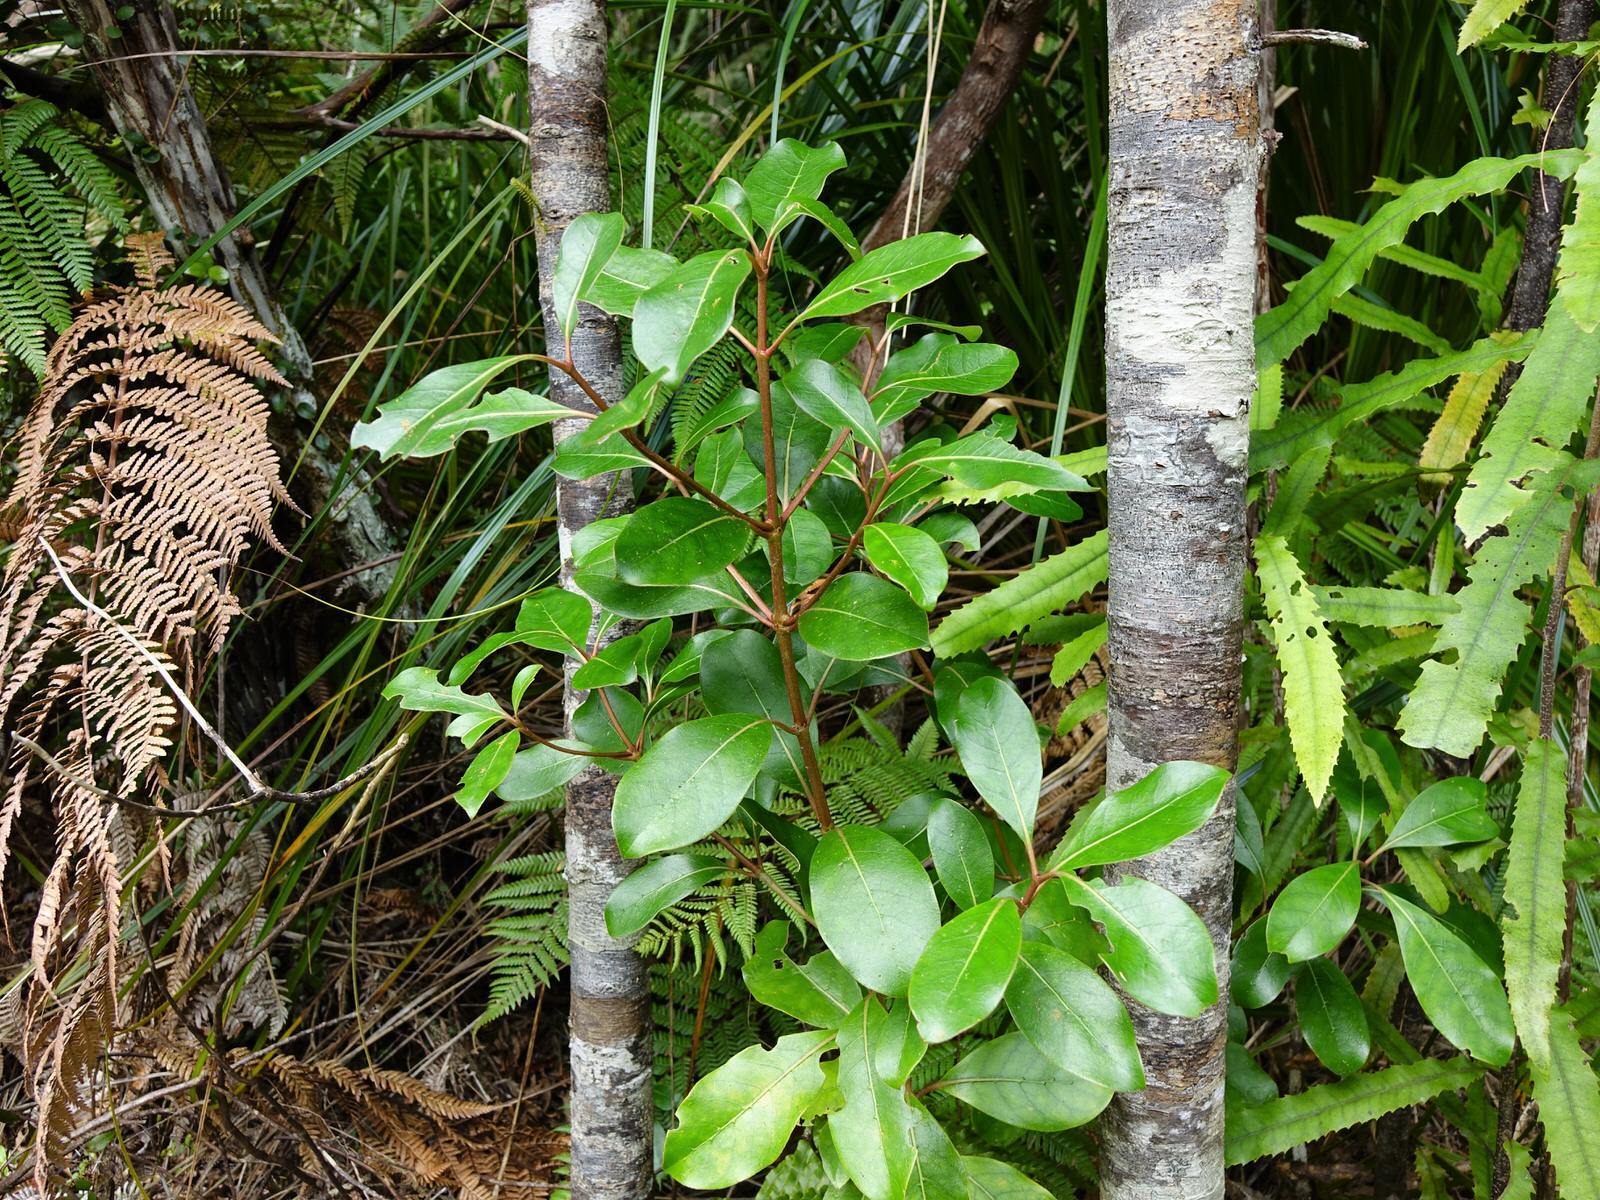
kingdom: Plantae
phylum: Tracheophyta
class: Magnoliopsida
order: Gentianales
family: Rubiaceae
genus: Coprosma
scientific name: Coprosma lucida
